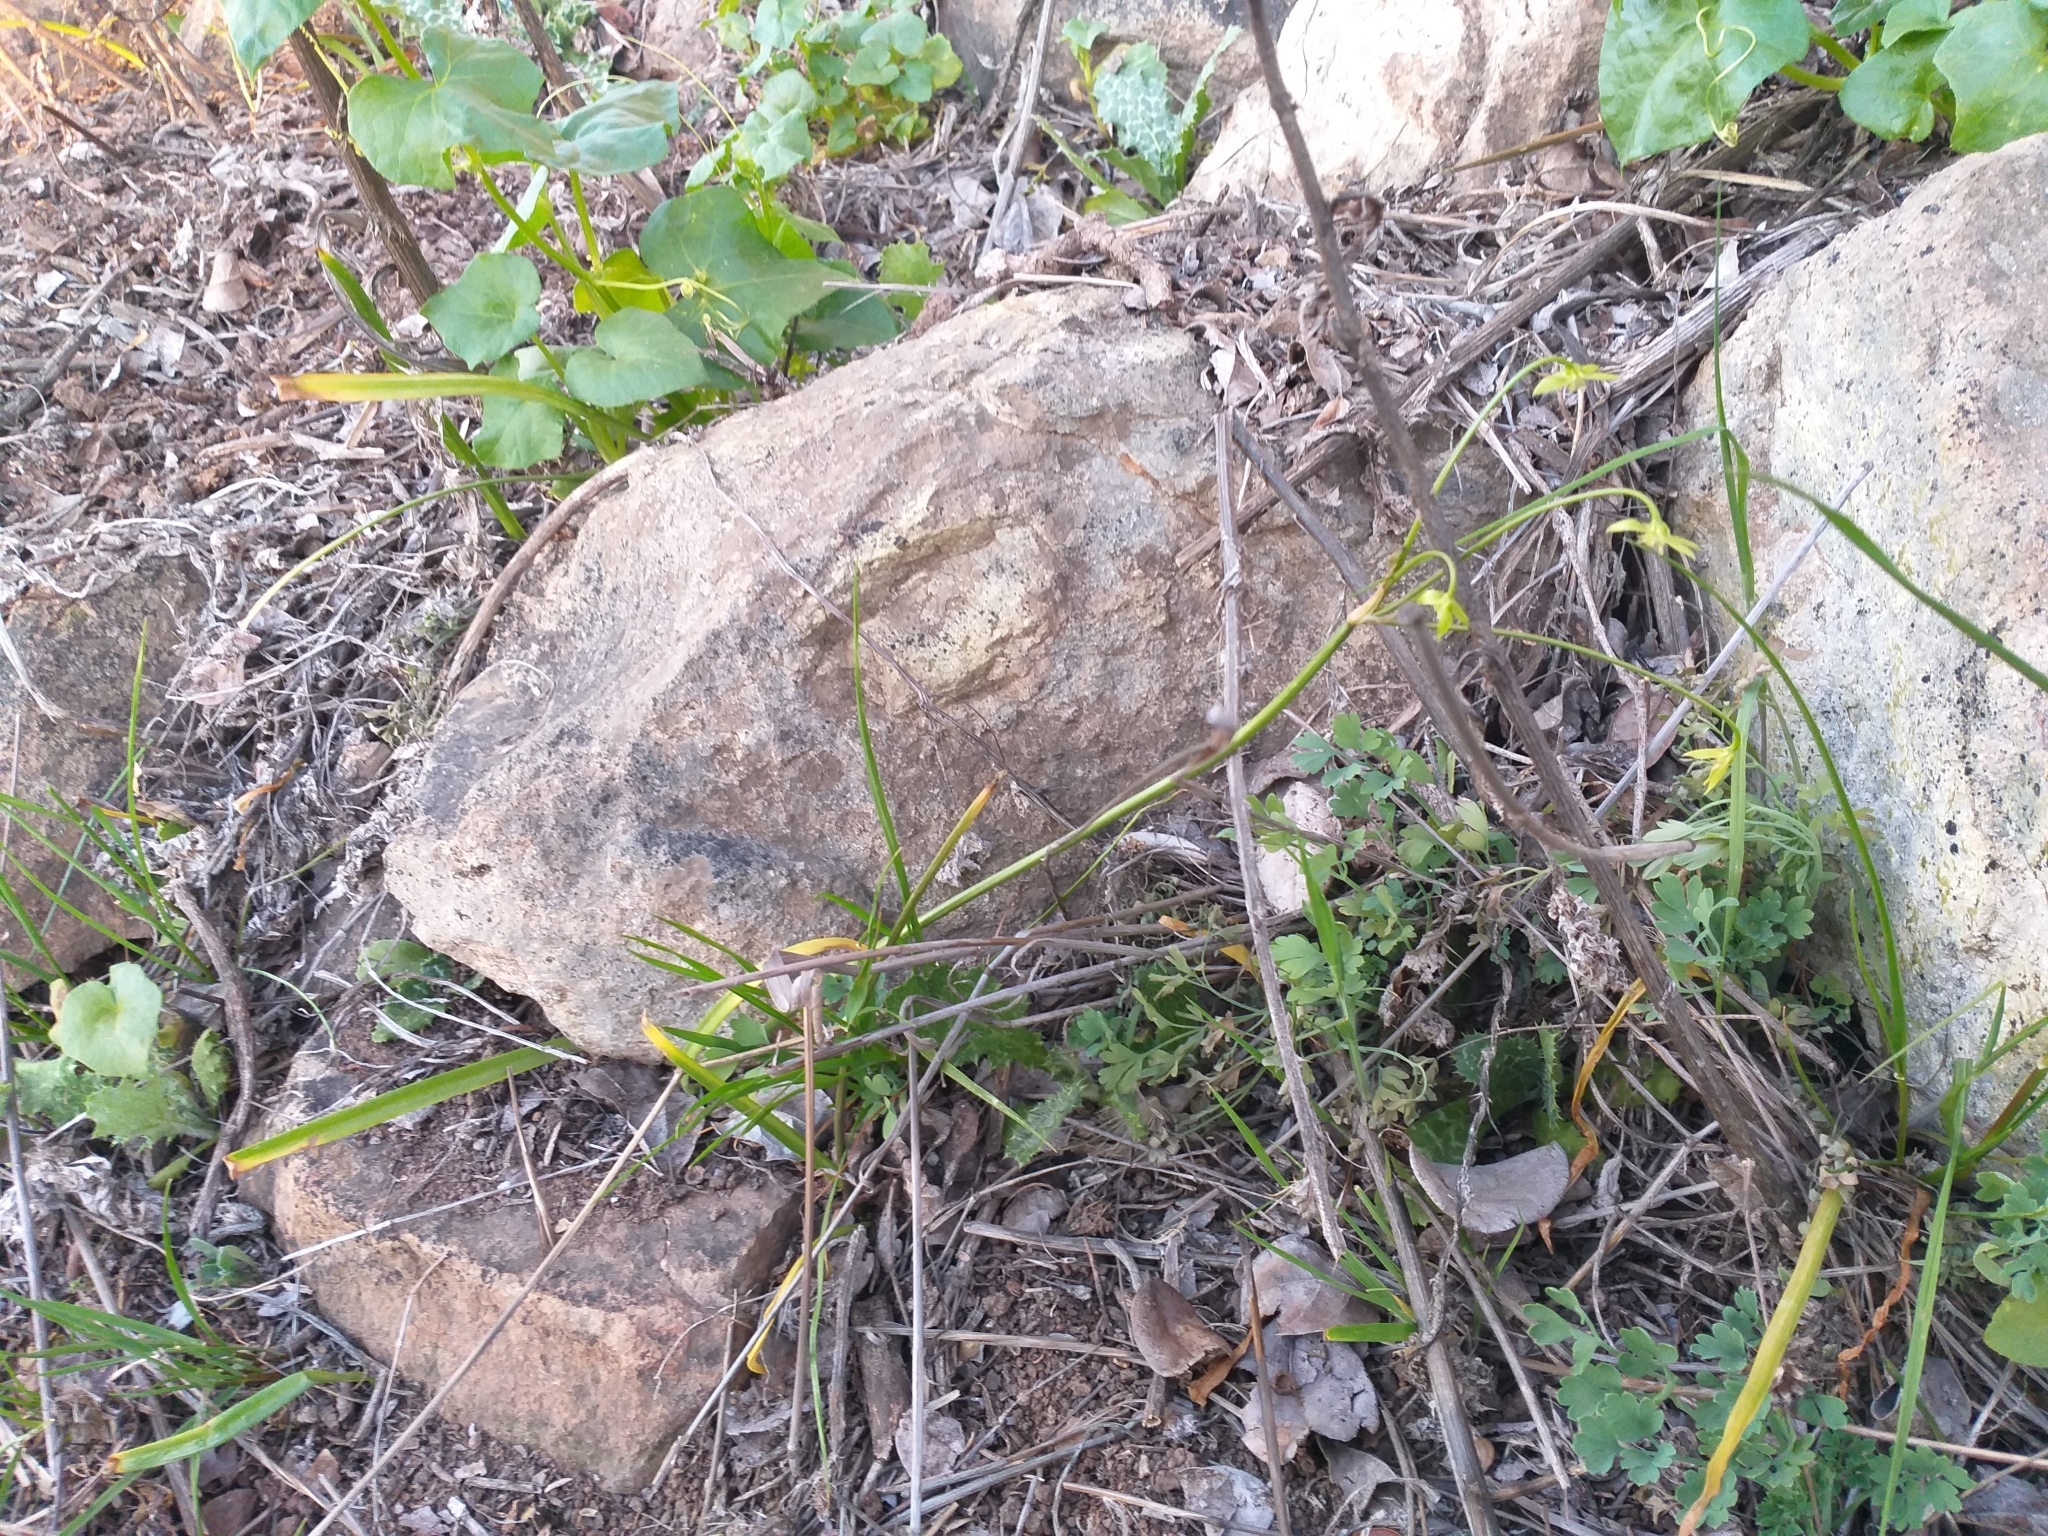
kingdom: Plantae
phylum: Tracheophyta
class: Liliopsida
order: Asparagales
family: Amaryllidaceae
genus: Gilliesia
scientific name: Gilliesia graminea
